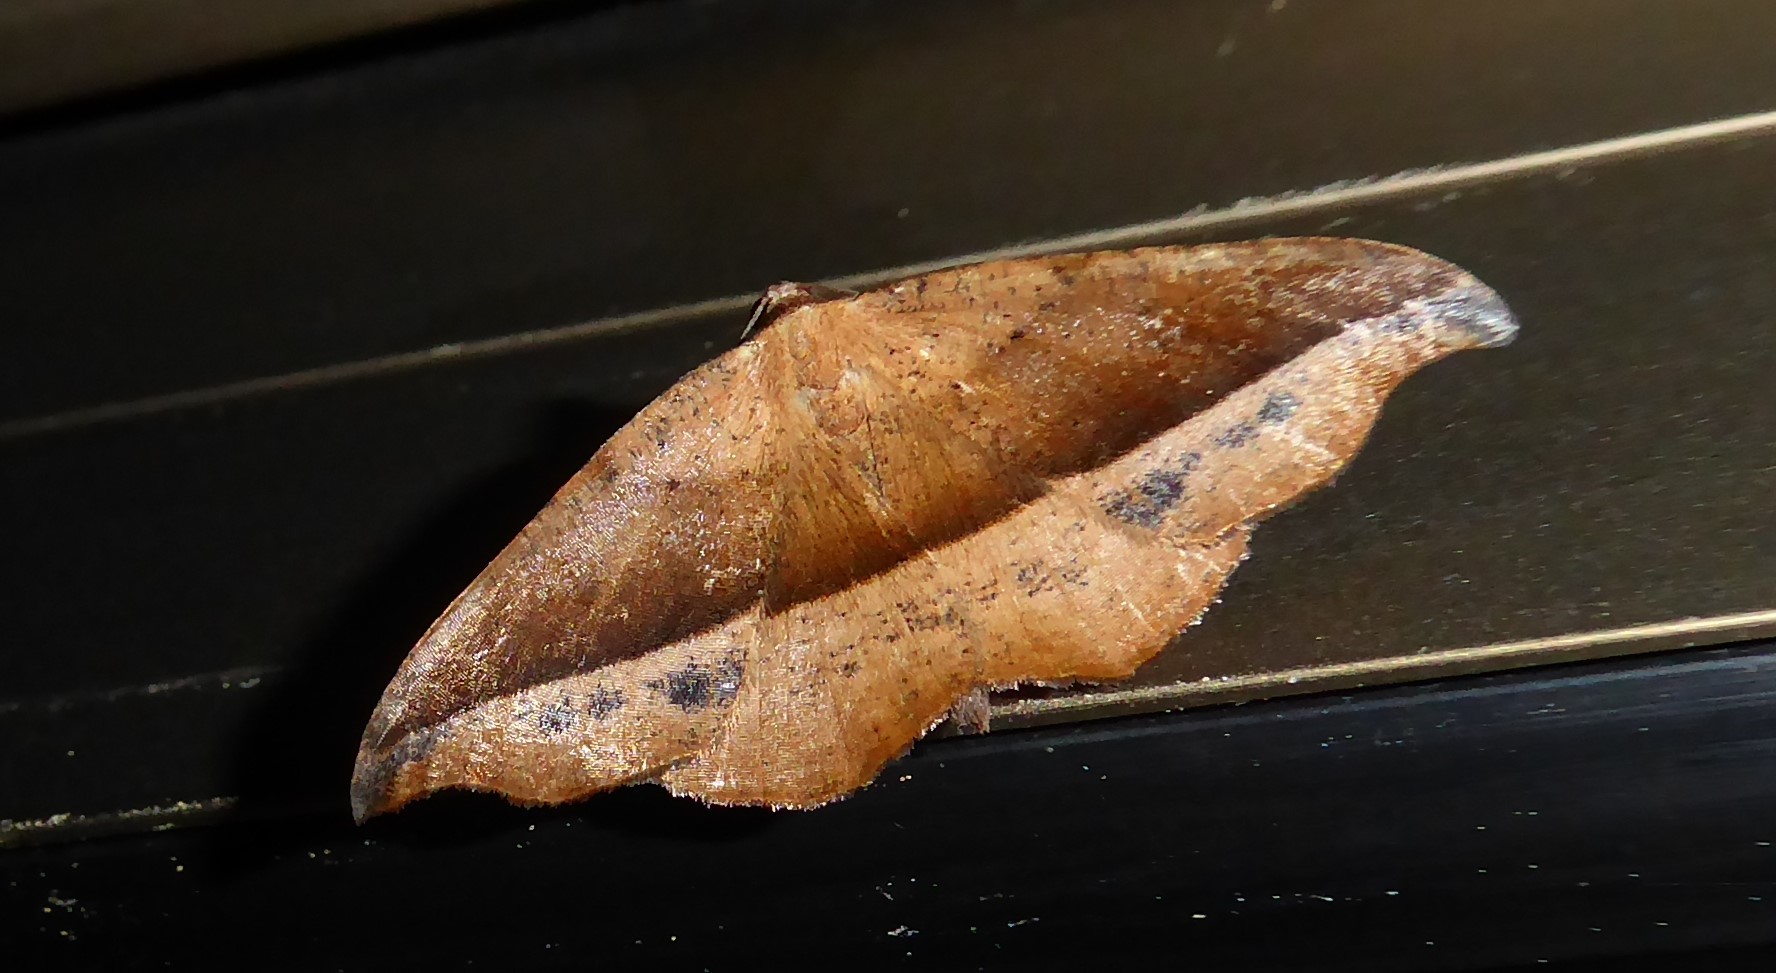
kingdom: Animalia
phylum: Arthropoda
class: Insecta
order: Lepidoptera
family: Geometridae
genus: Sarisa
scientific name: Sarisa muriferata
